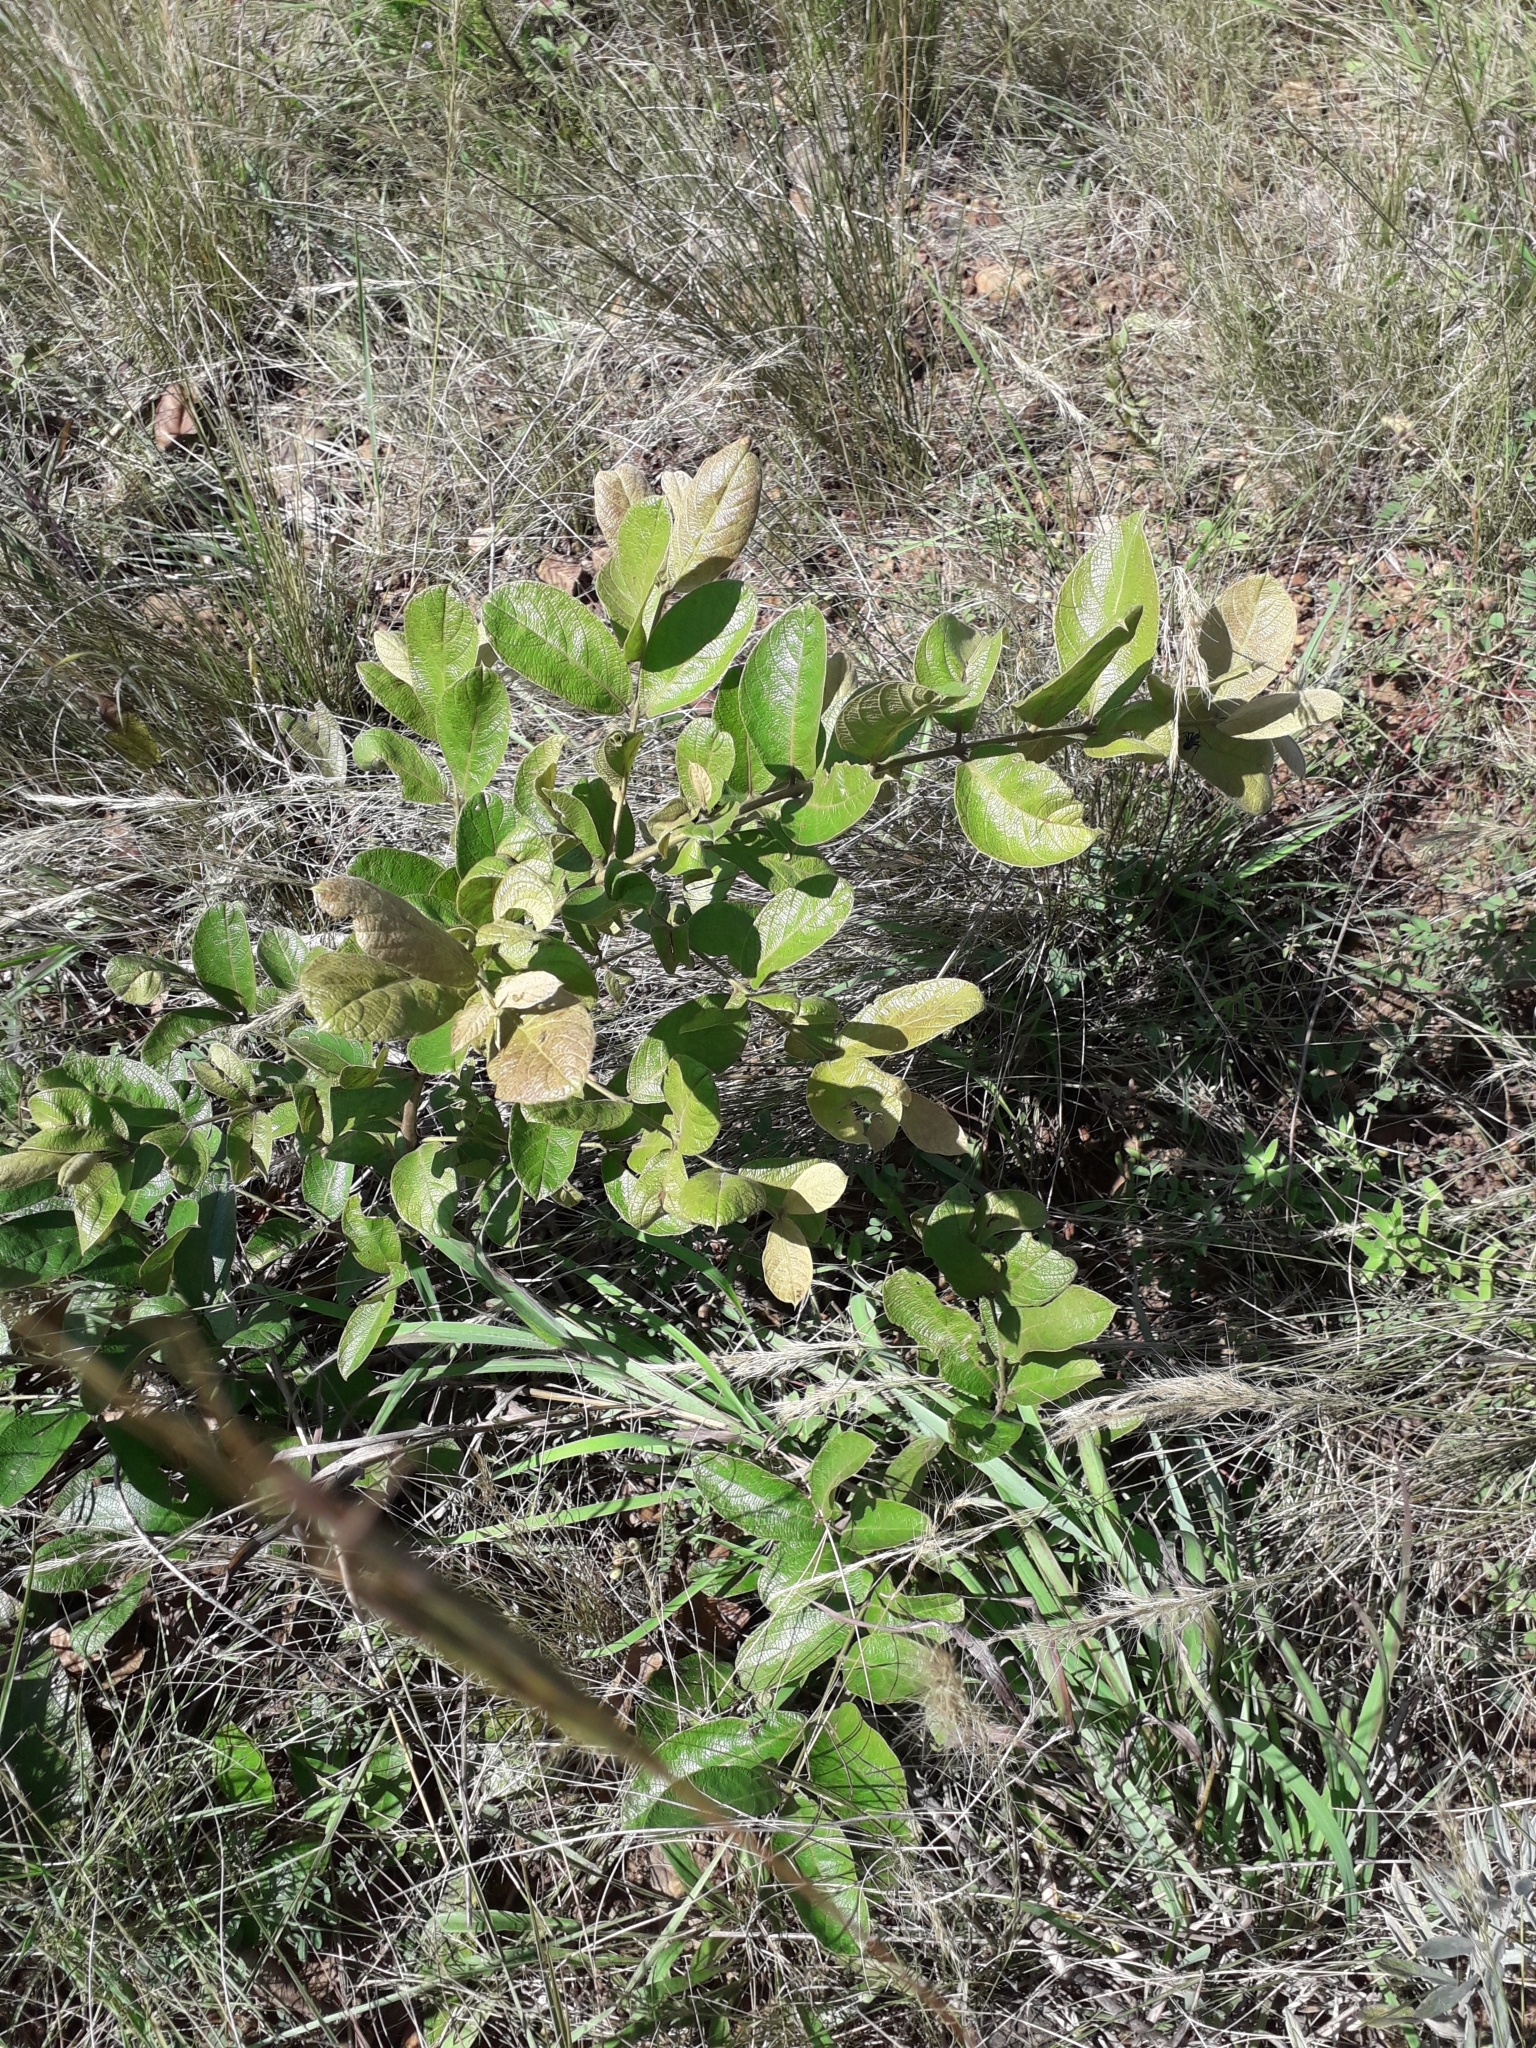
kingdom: Plantae
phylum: Tracheophyta
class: Magnoliopsida
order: Myrtales
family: Combretaceae
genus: Combretum
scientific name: Combretum molle
